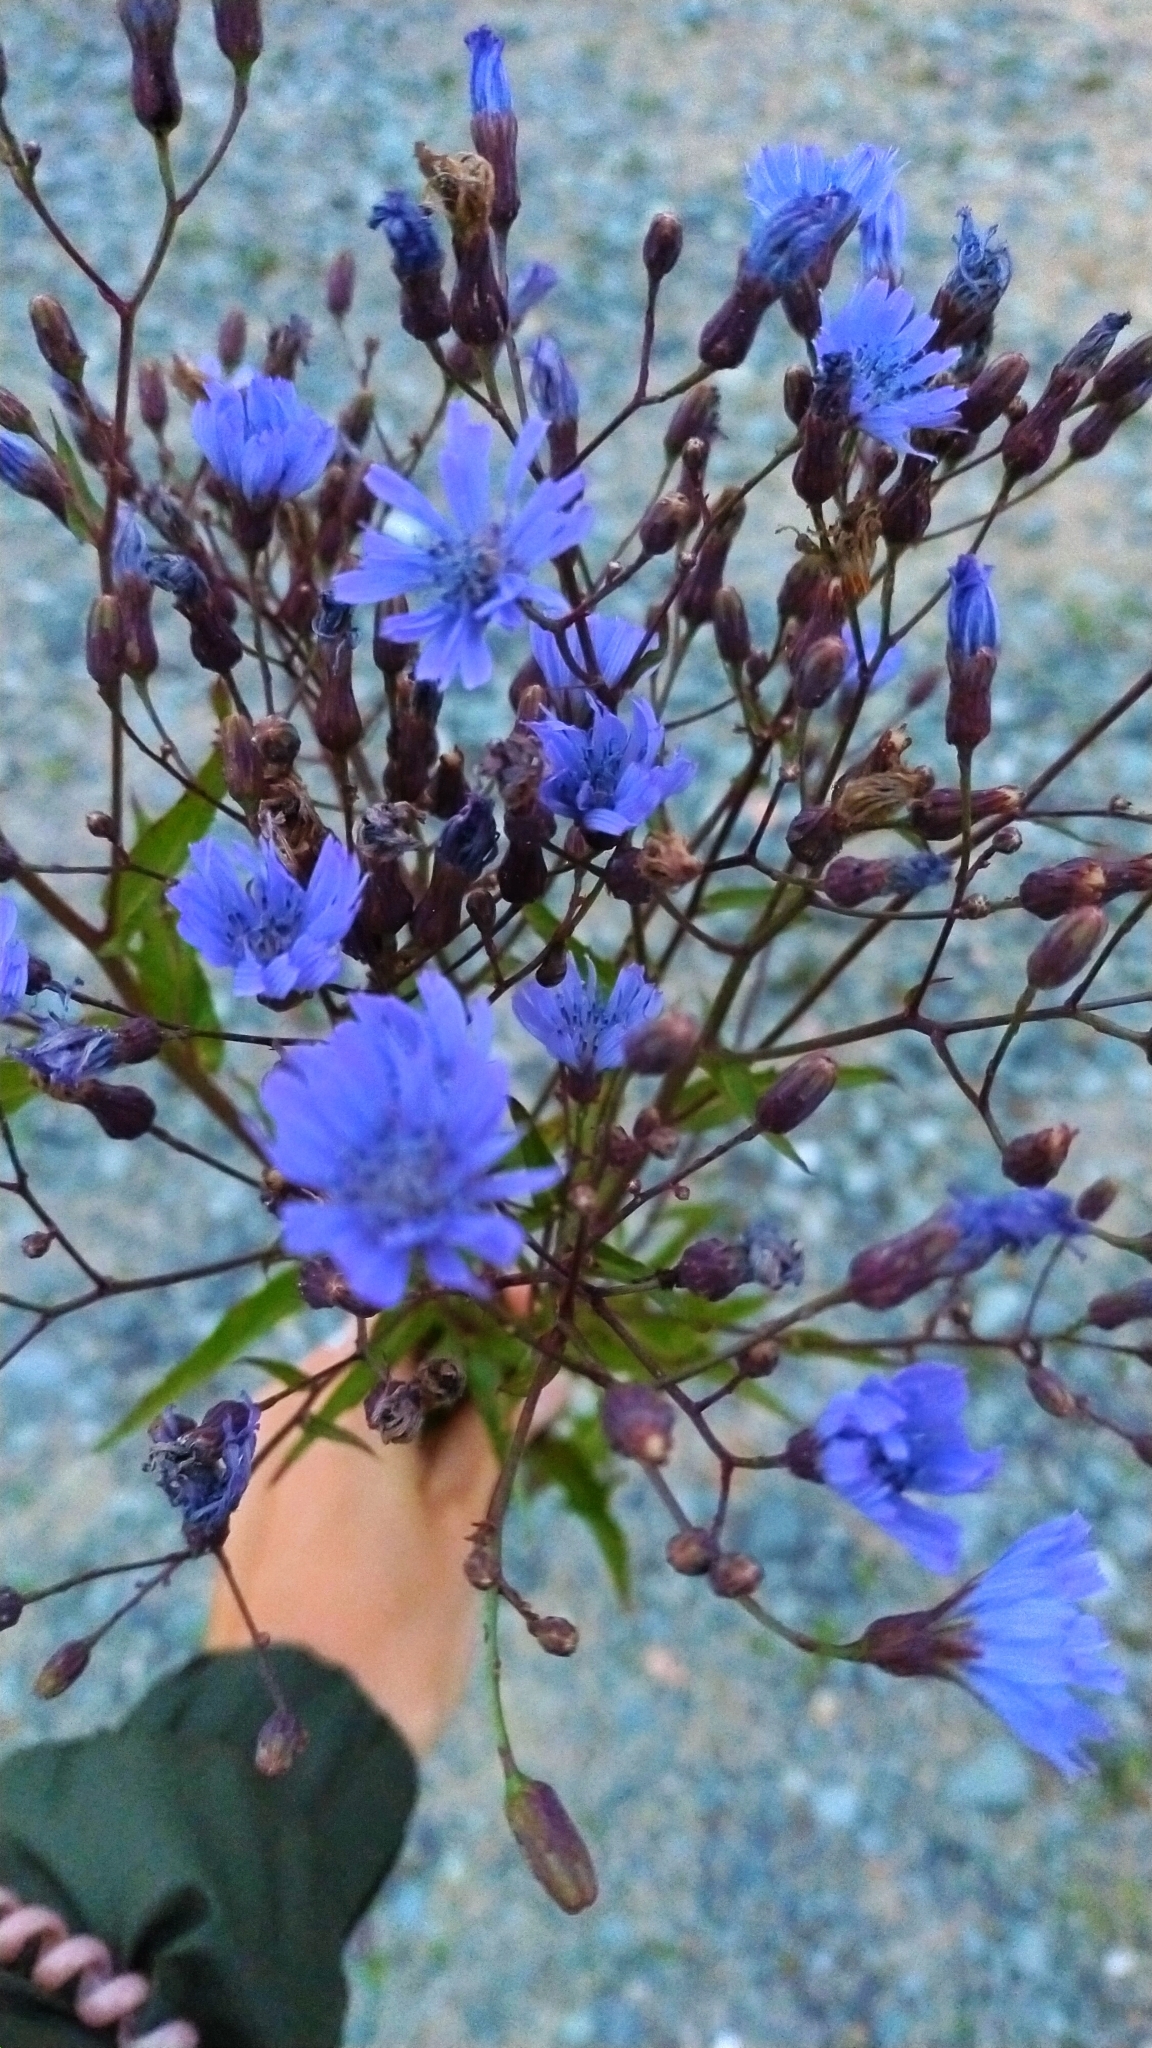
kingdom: Plantae
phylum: Tracheophyta
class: Magnoliopsida
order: Asterales
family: Asteraceae
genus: Lactuca
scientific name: Lactuca sibirica
